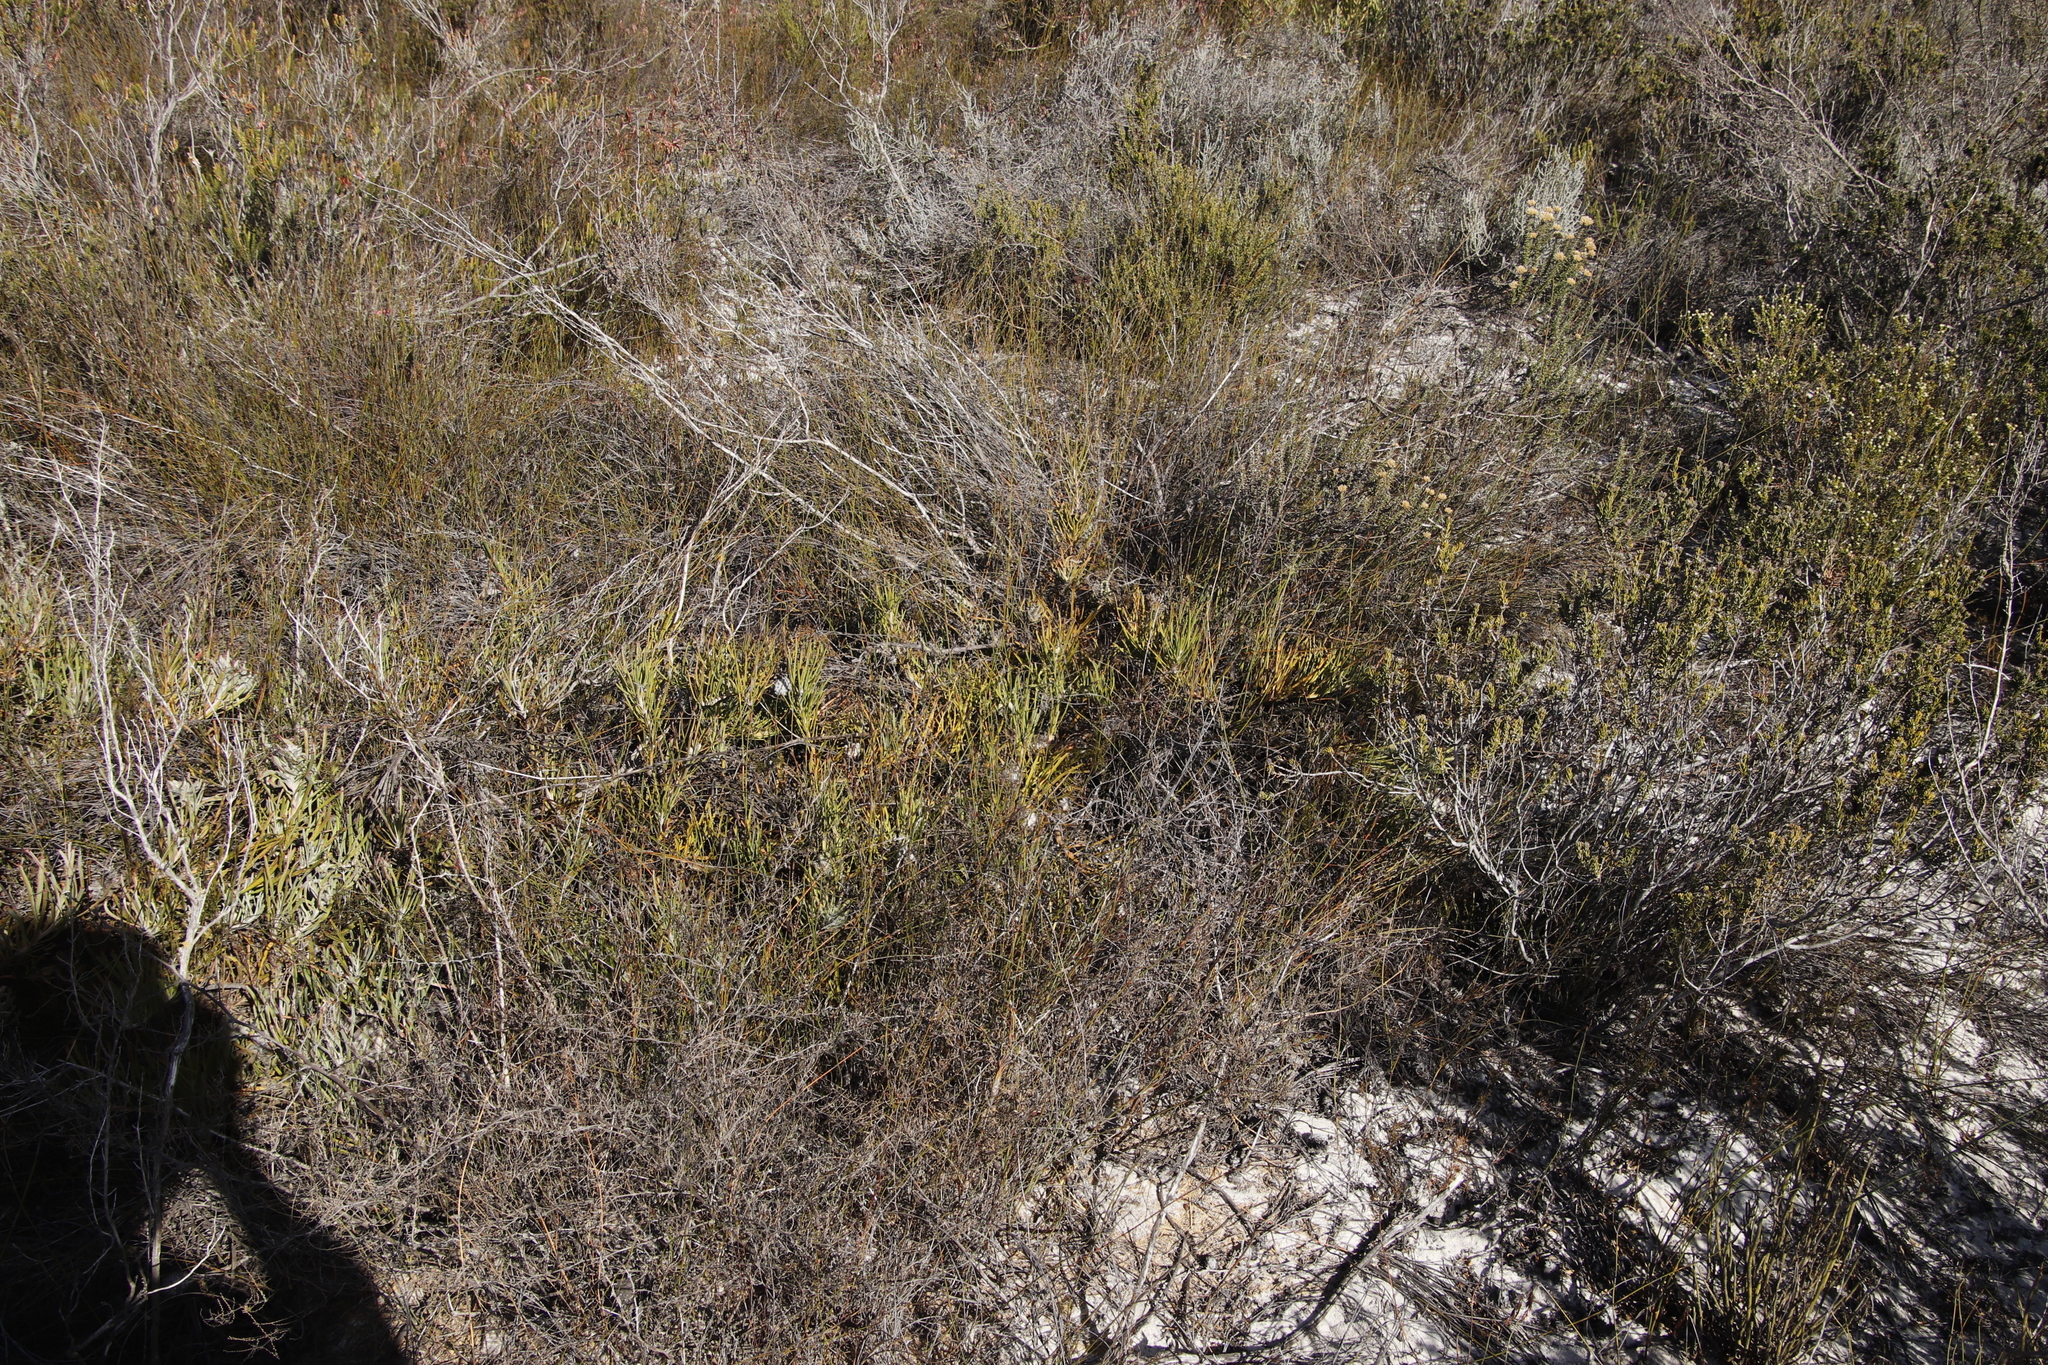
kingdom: Plantae
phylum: Tracheophyta
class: Magnoliopsida
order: Proteales
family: Proteaceae
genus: Leucospermum
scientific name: Leucospermum hypophyllocarpodendron
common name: Snakestem pincushion
